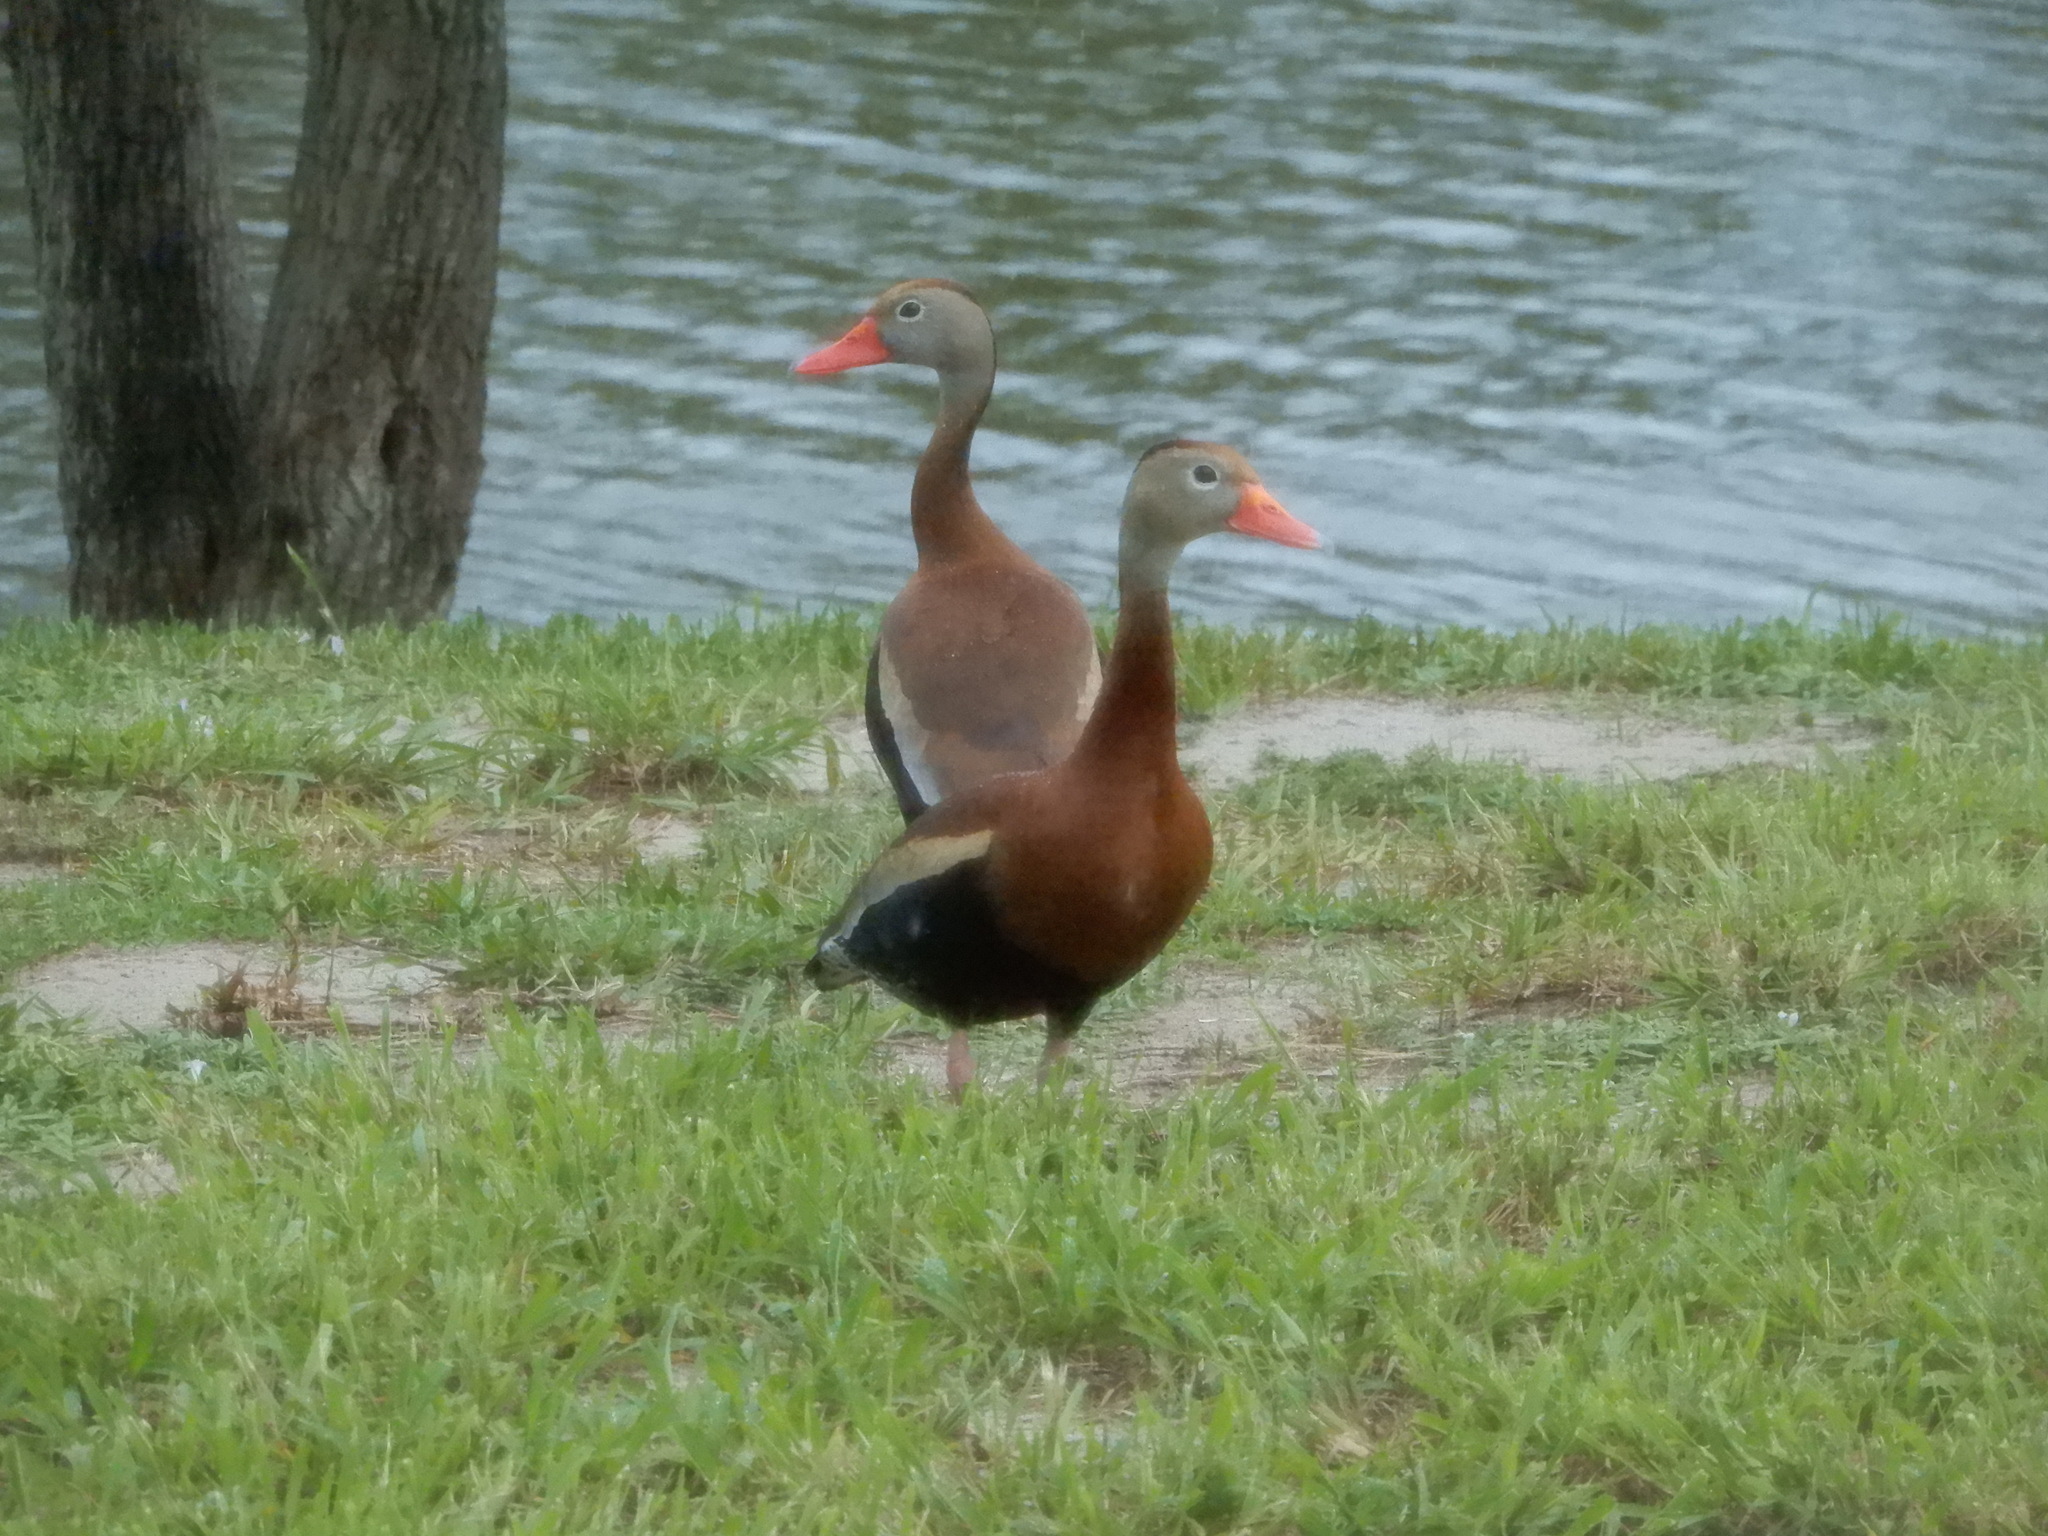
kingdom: Animalia
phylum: Chordata
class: Aves
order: Anseriformes
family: Anatidae
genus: Dendrocygna
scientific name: Dendrocygna autumnalis
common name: Black-bellied whistling duck
